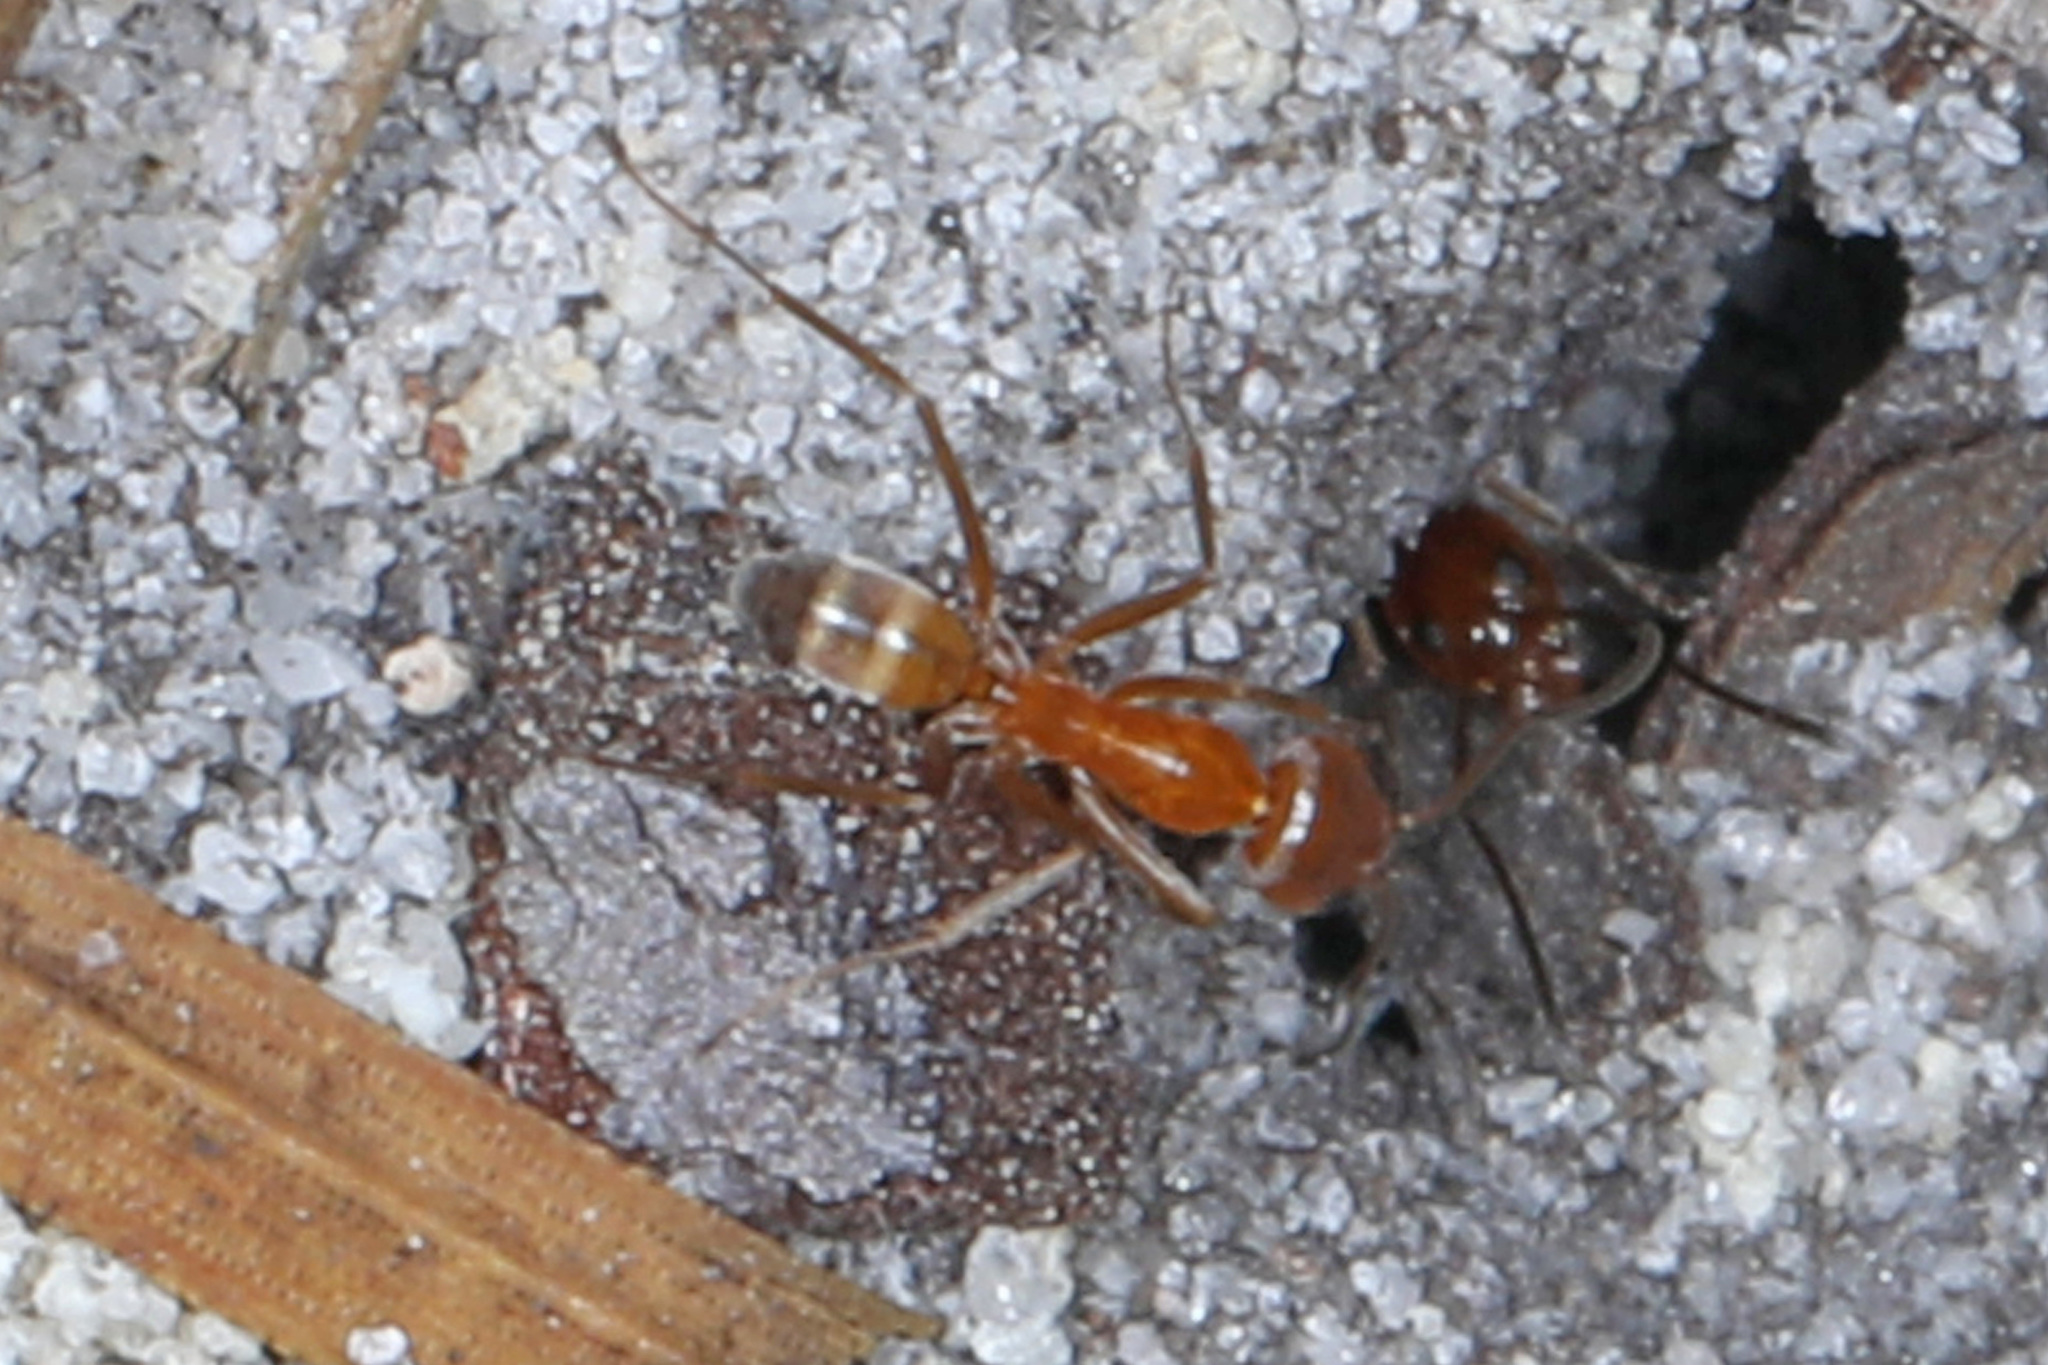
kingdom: Animalia
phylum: Arthropoda
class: Insecta
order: Hymenoptera
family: Formicidae
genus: Dorymyrmex
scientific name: Dorymyrmex bureni
